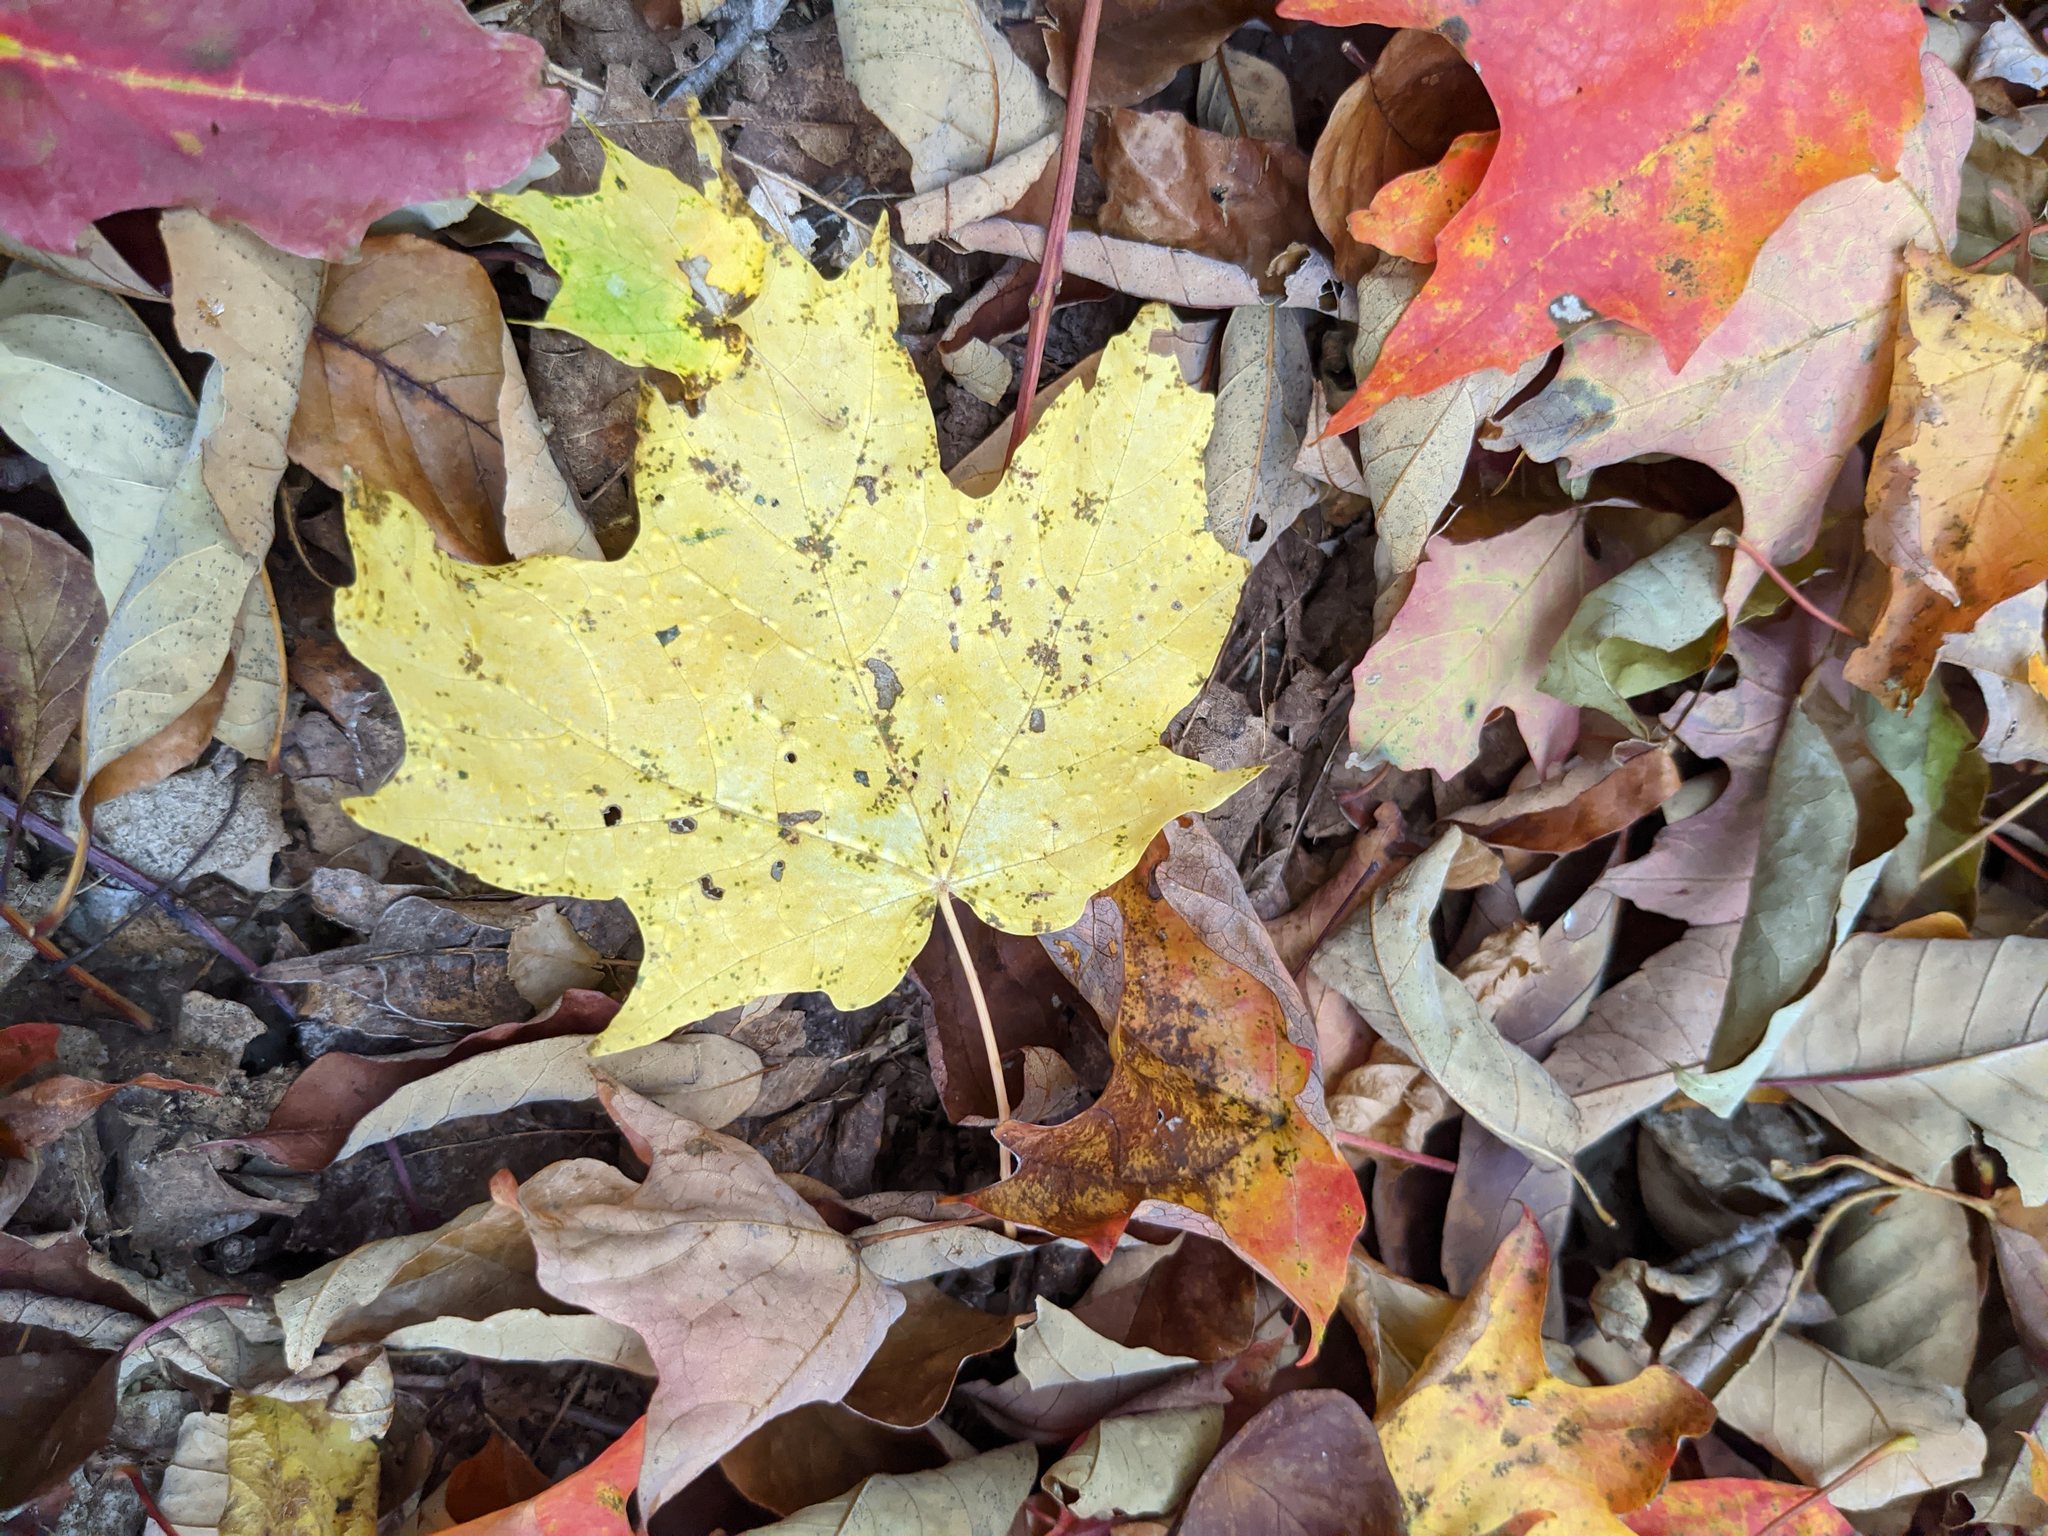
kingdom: Plantae
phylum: Tracheophyta
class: Magnoliopsida
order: Sapindales
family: Sapindaceae
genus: Acer
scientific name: Acer saccharum
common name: Sugar maple
